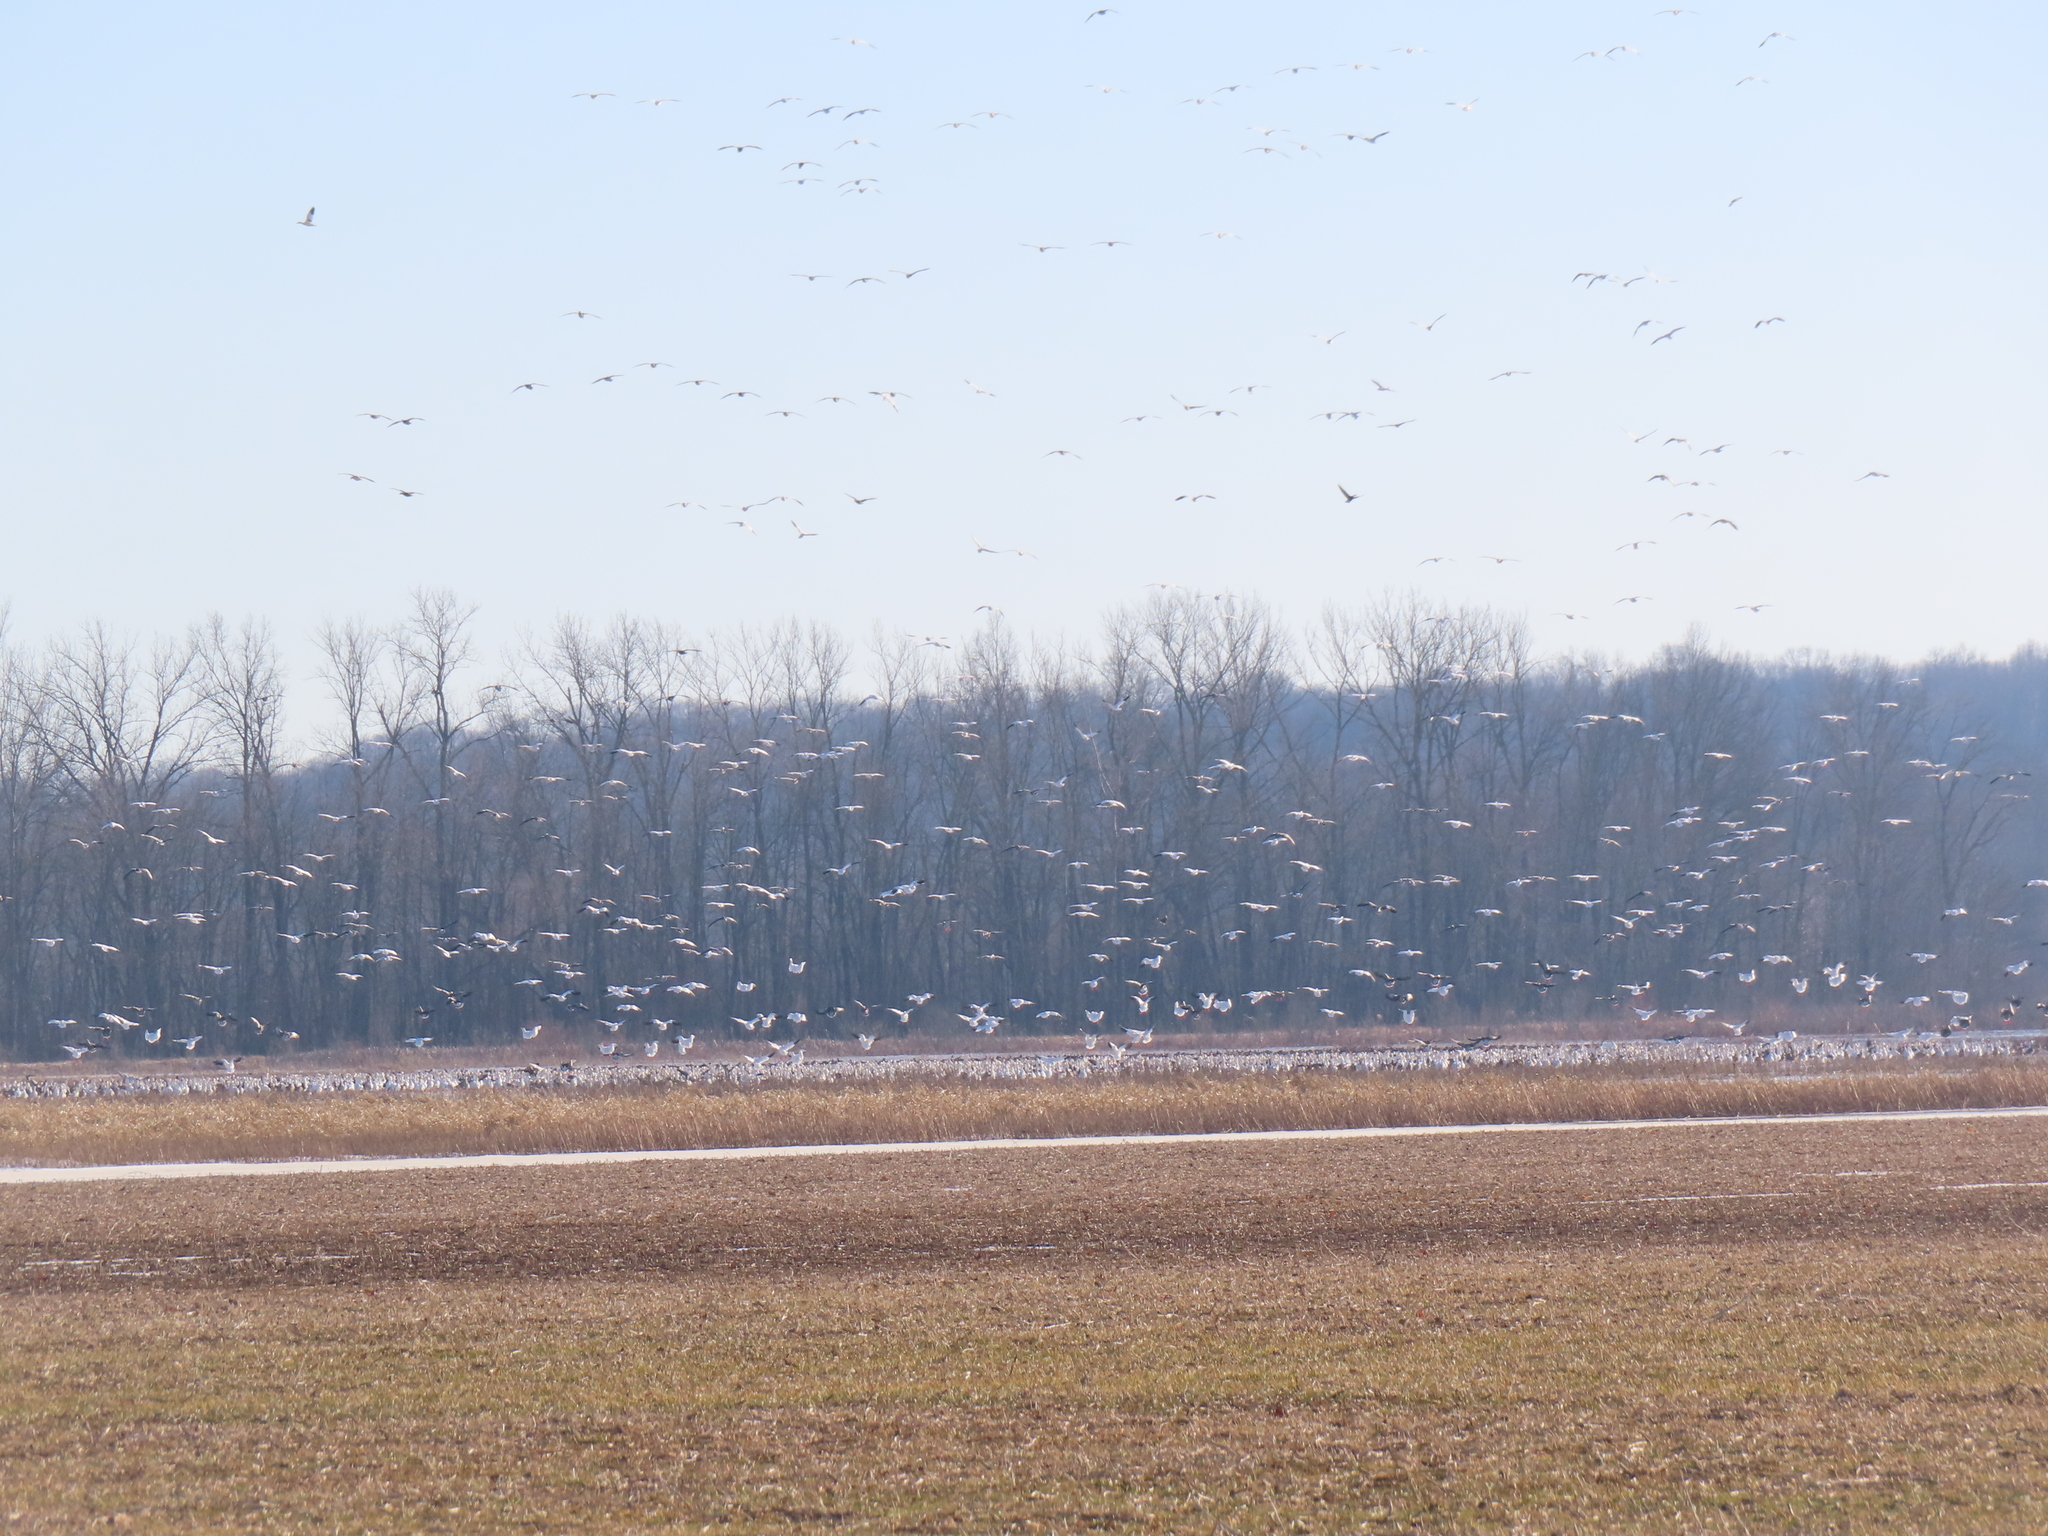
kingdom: Animalia
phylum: Chordata
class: Aves
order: Anseriformes
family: Anatidae
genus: Anser
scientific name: Anser caerulescens
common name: Snow goose
